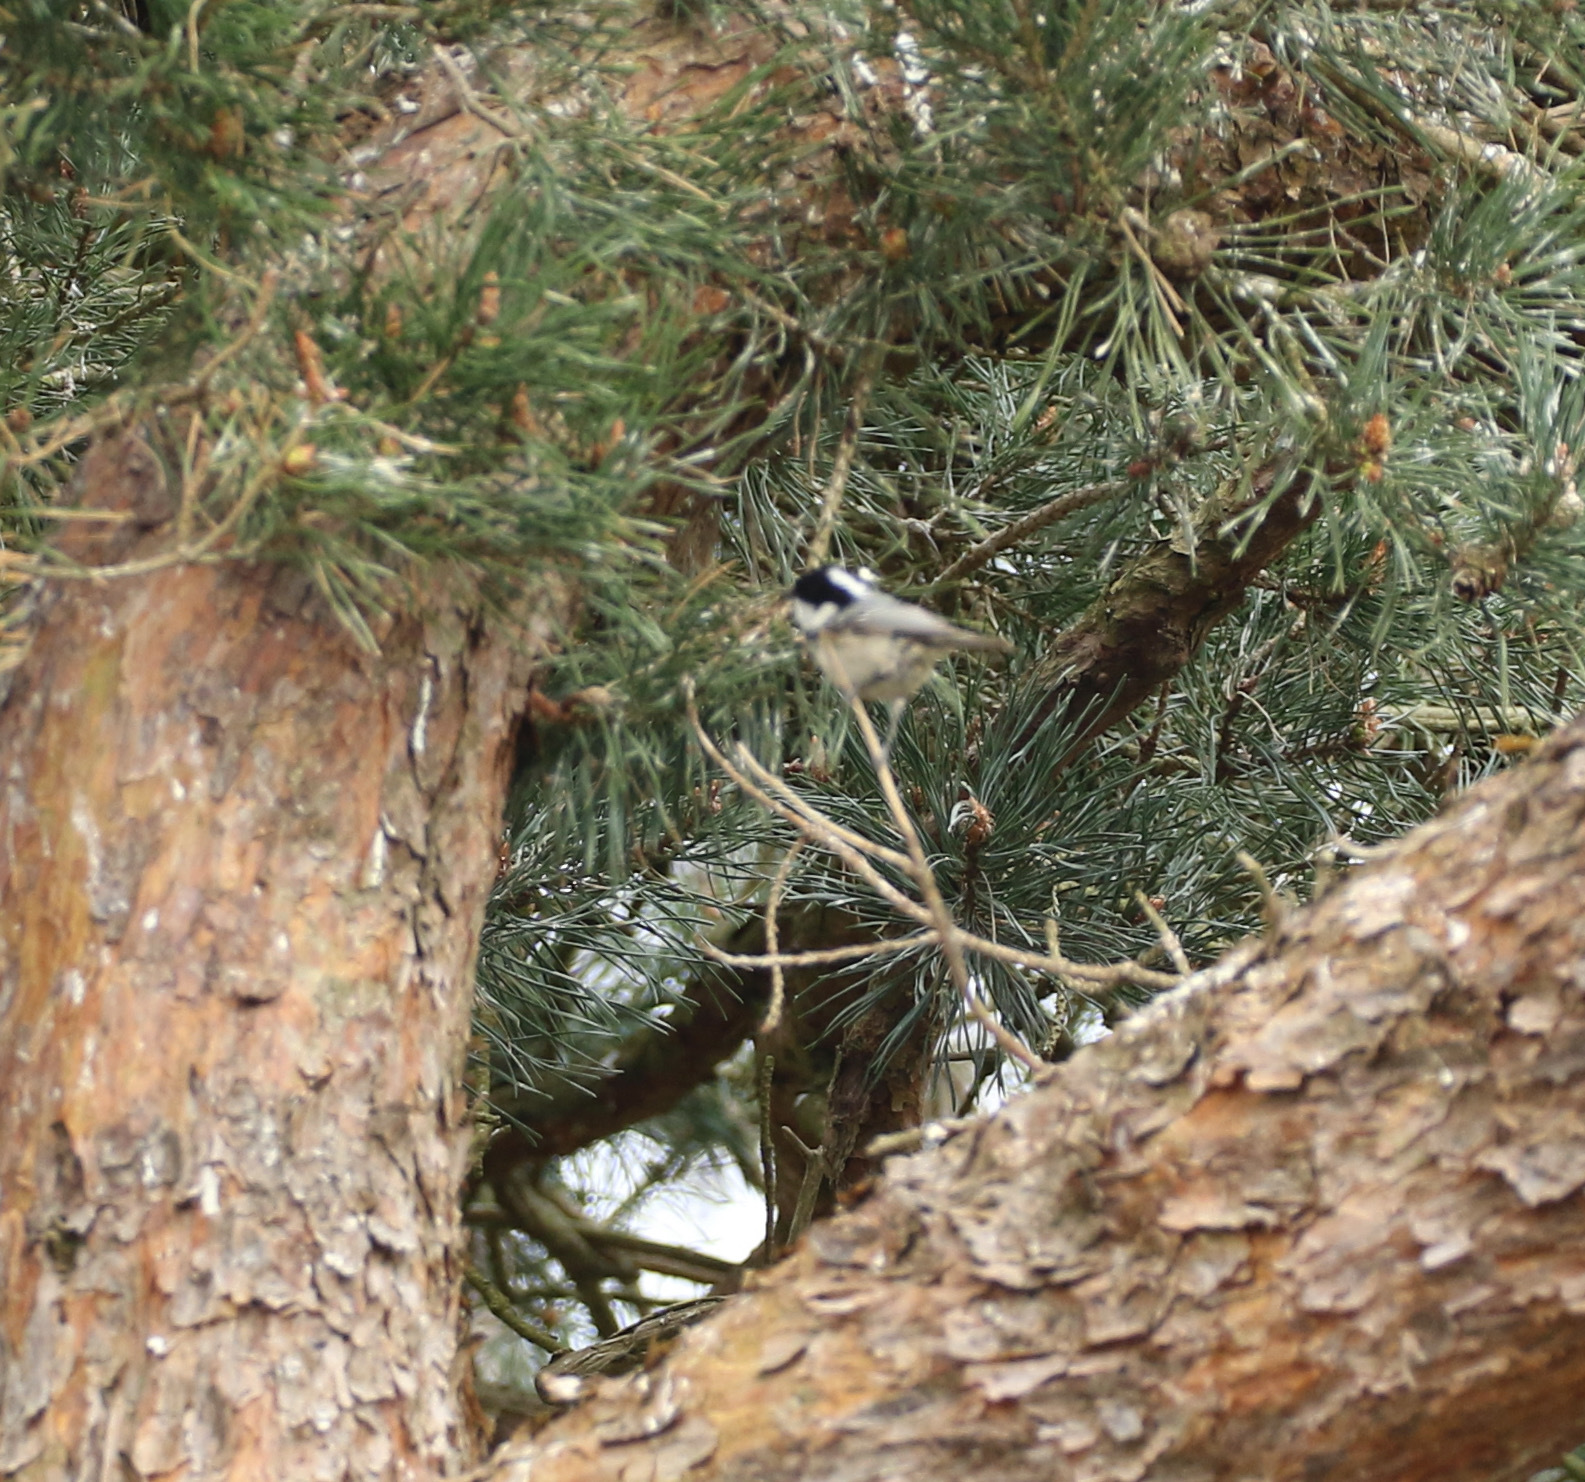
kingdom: Animalia
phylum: Chordata
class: Aves
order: Passeriformes
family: Paridae
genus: Periparus
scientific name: Periparus ater
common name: Coal tit
